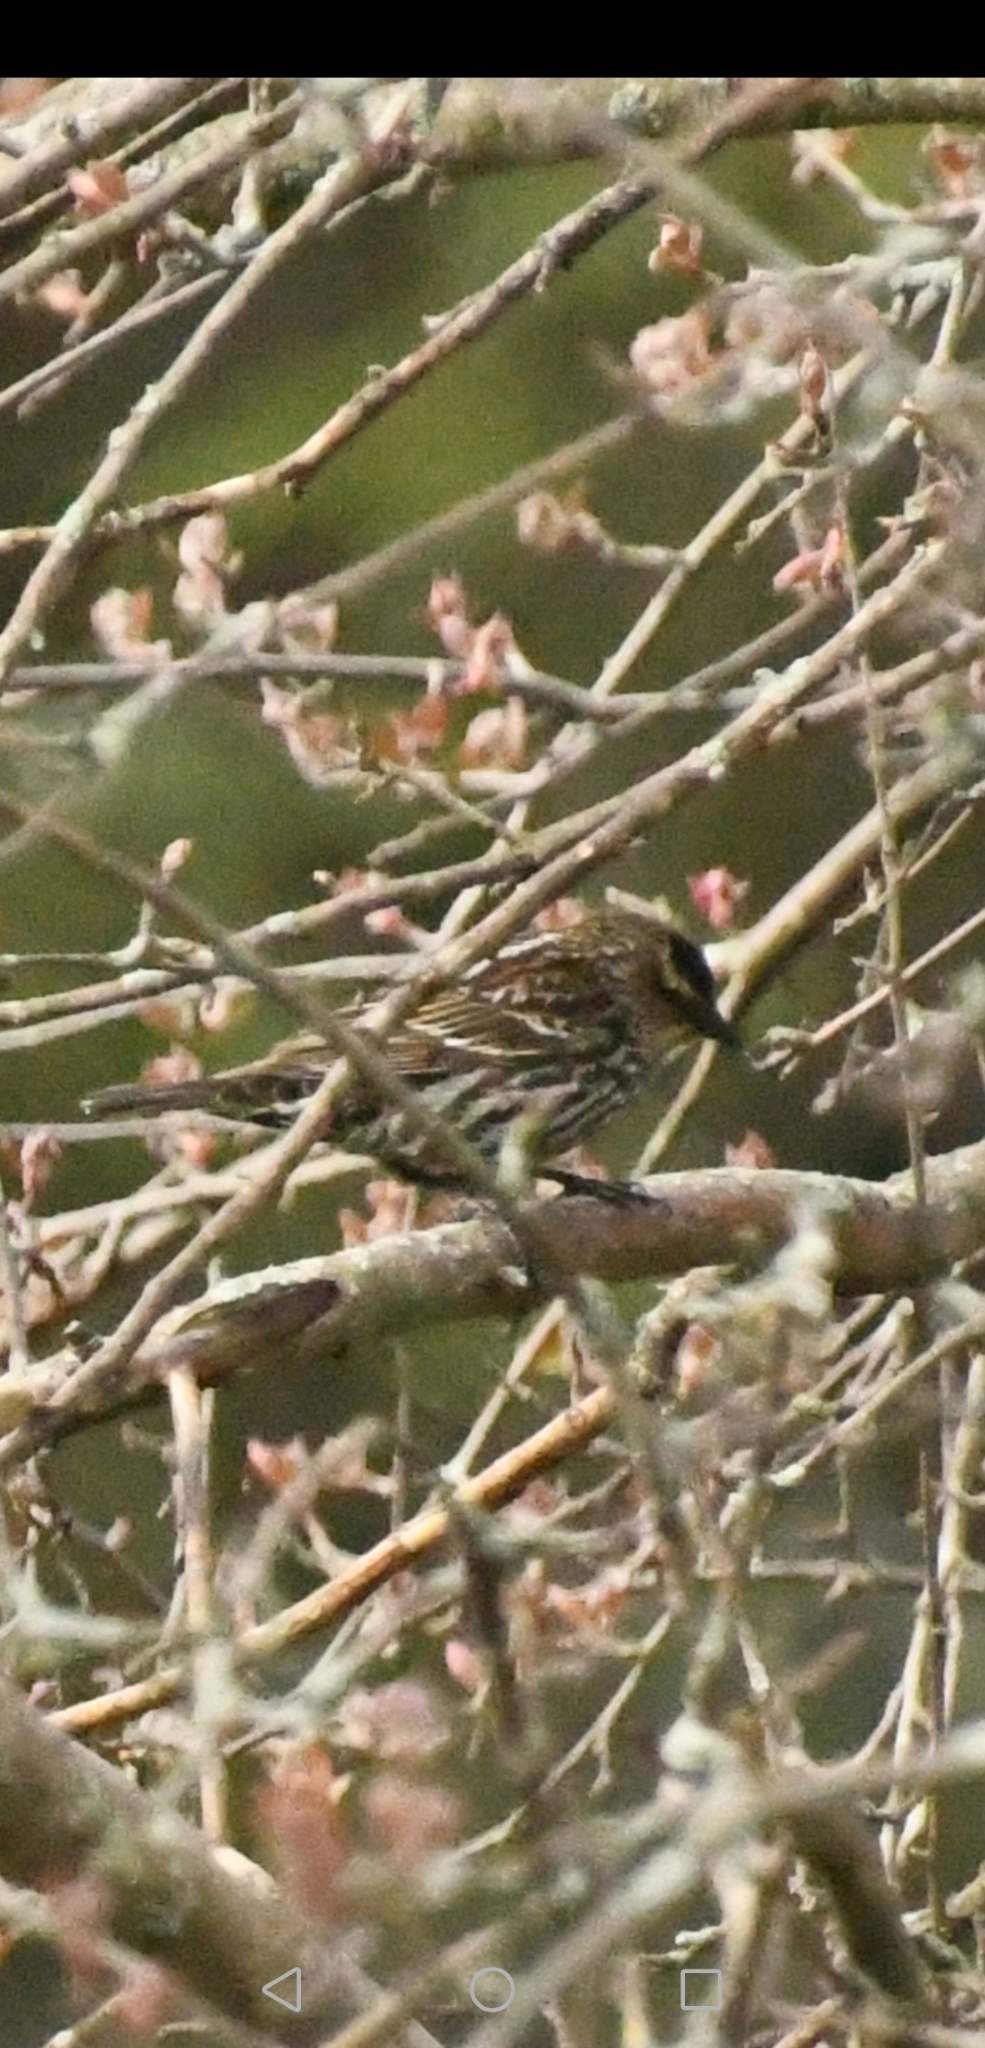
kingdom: Animalia
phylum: Chordata
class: Aves
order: Passeriformes
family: Icteridae
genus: Agelaius
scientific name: Agelaius phoeniceus
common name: Red-winged blackbird
